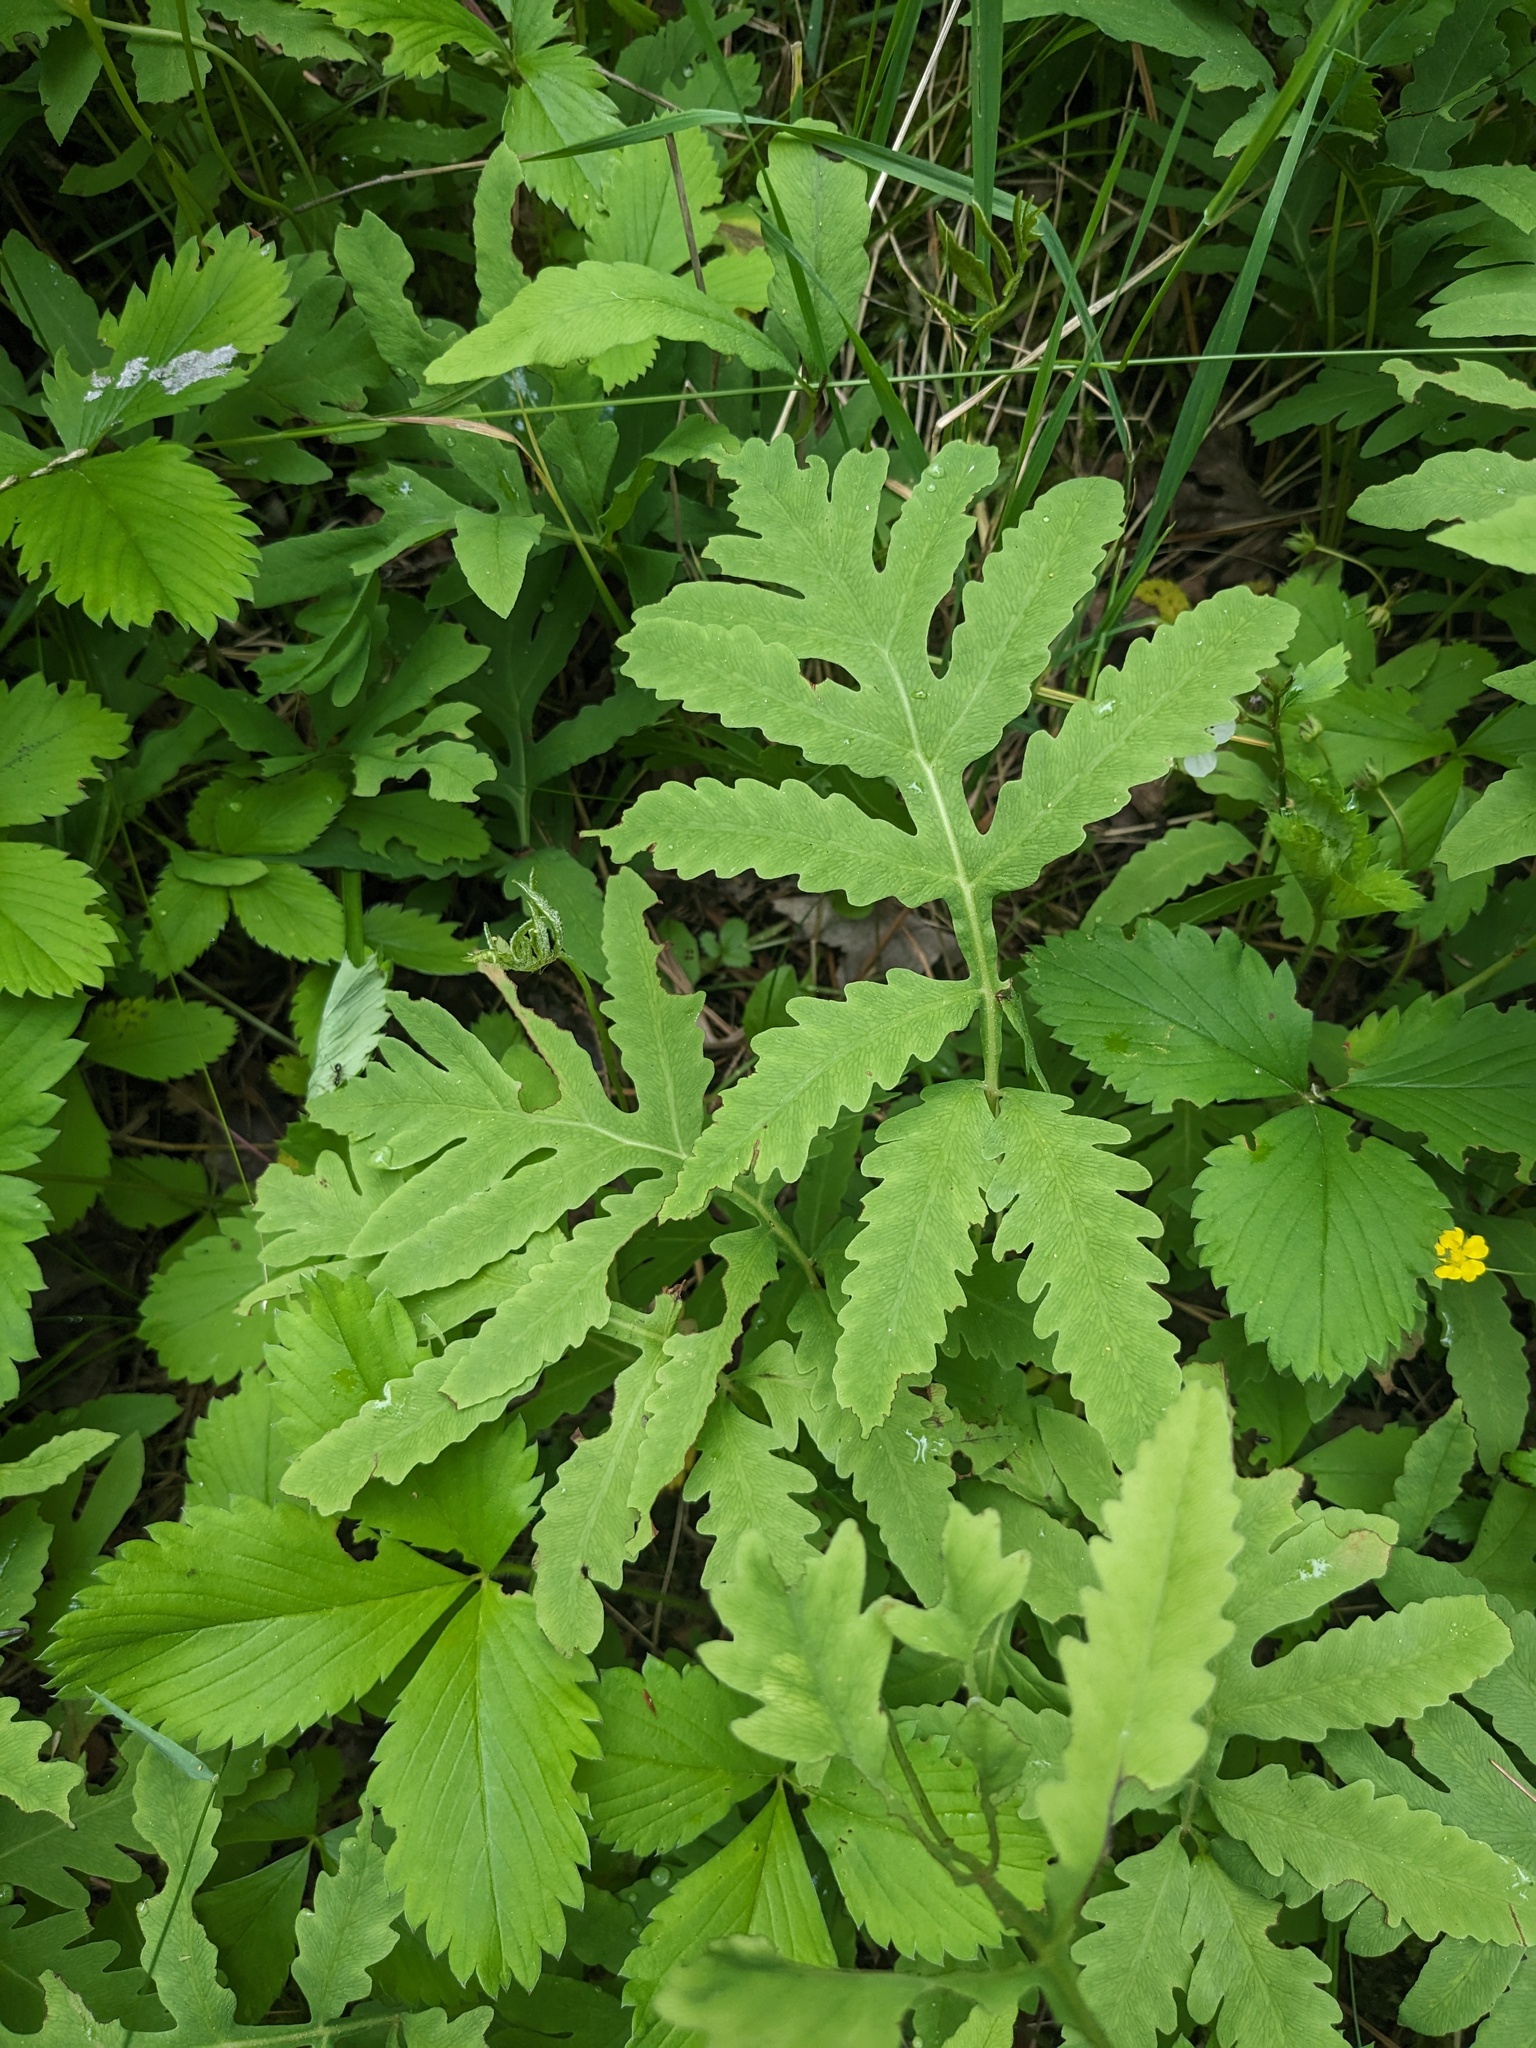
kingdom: Plantae
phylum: Tracheophyta
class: Polypodiopsida
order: Polypodiales
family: Onocleaceae
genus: Onoclea
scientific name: Onoclea sensibilis
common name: Sensitive fern
